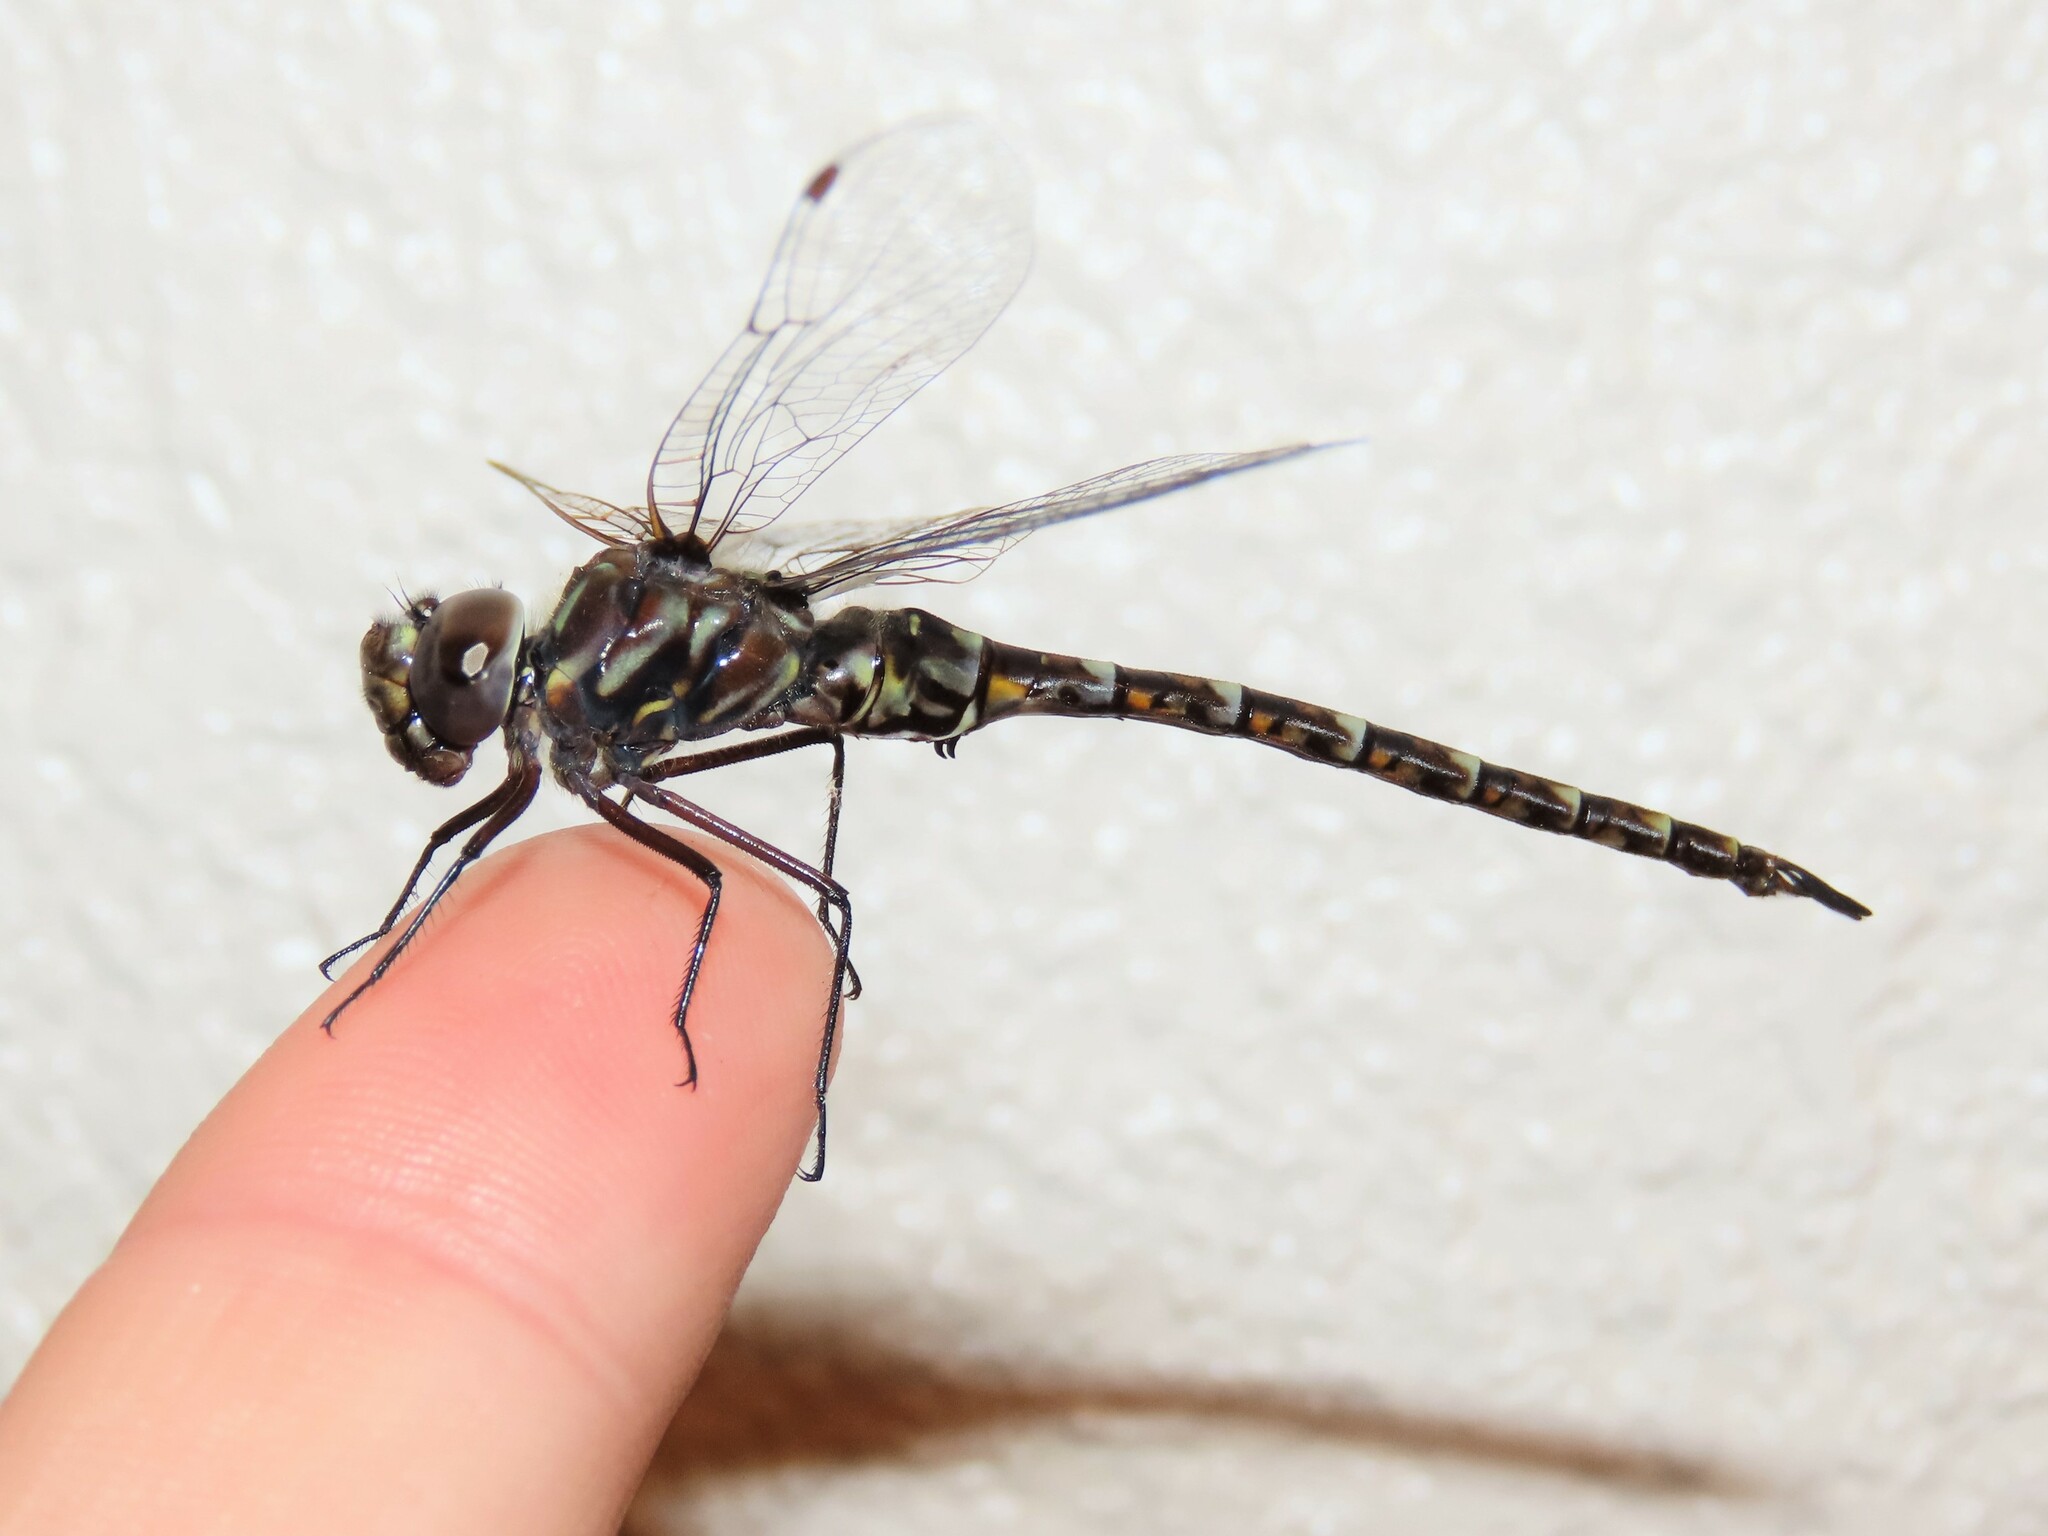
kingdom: Animalia
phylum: Arthropoda
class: Insecta
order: Odonata
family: Aeshnidae
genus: Gomphaeschna
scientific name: Gomphaeschna antilope
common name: Taper-tailed darner
